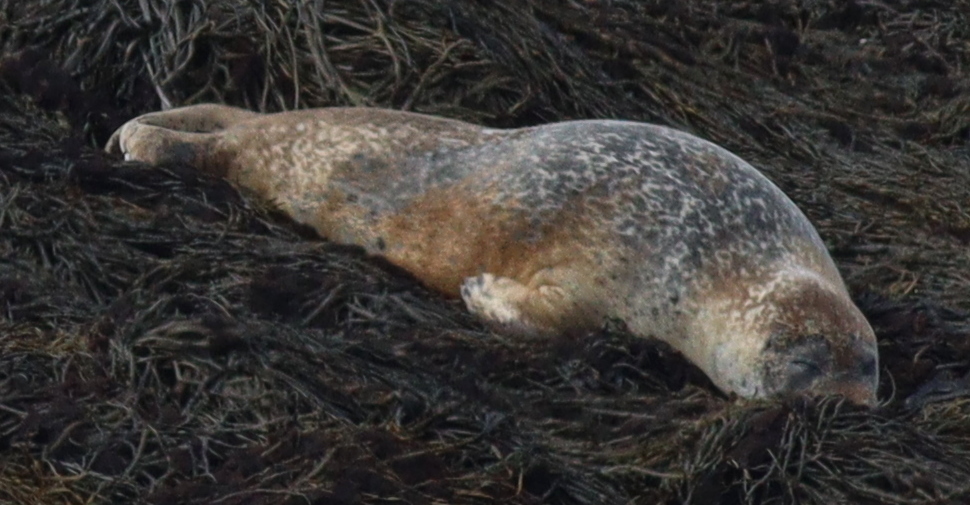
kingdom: Animalia
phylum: Chordata
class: Mammalia
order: Carnivora
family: Phocidae
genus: Phoca
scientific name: Phoca vitulina
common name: Harbor seal
